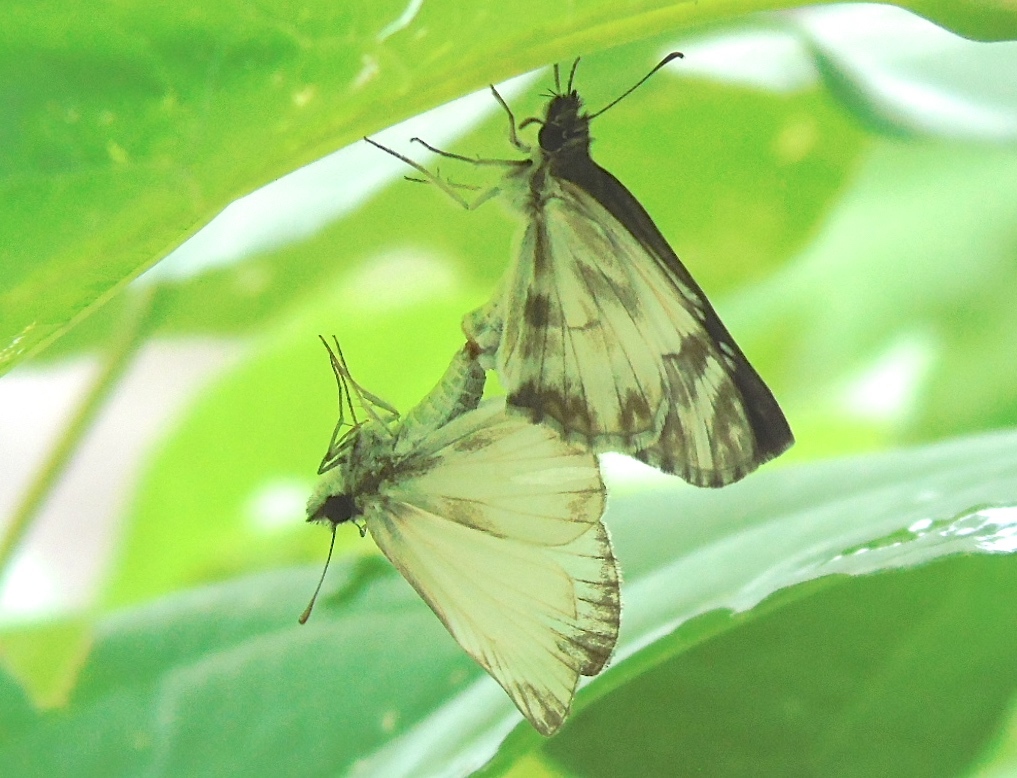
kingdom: Animalia
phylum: Arthropoda
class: Insecta
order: Lepidoptera
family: Hesperiidae
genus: Heliopetes
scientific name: Heliopetes macaira
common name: Turk's-cap white-skipper
